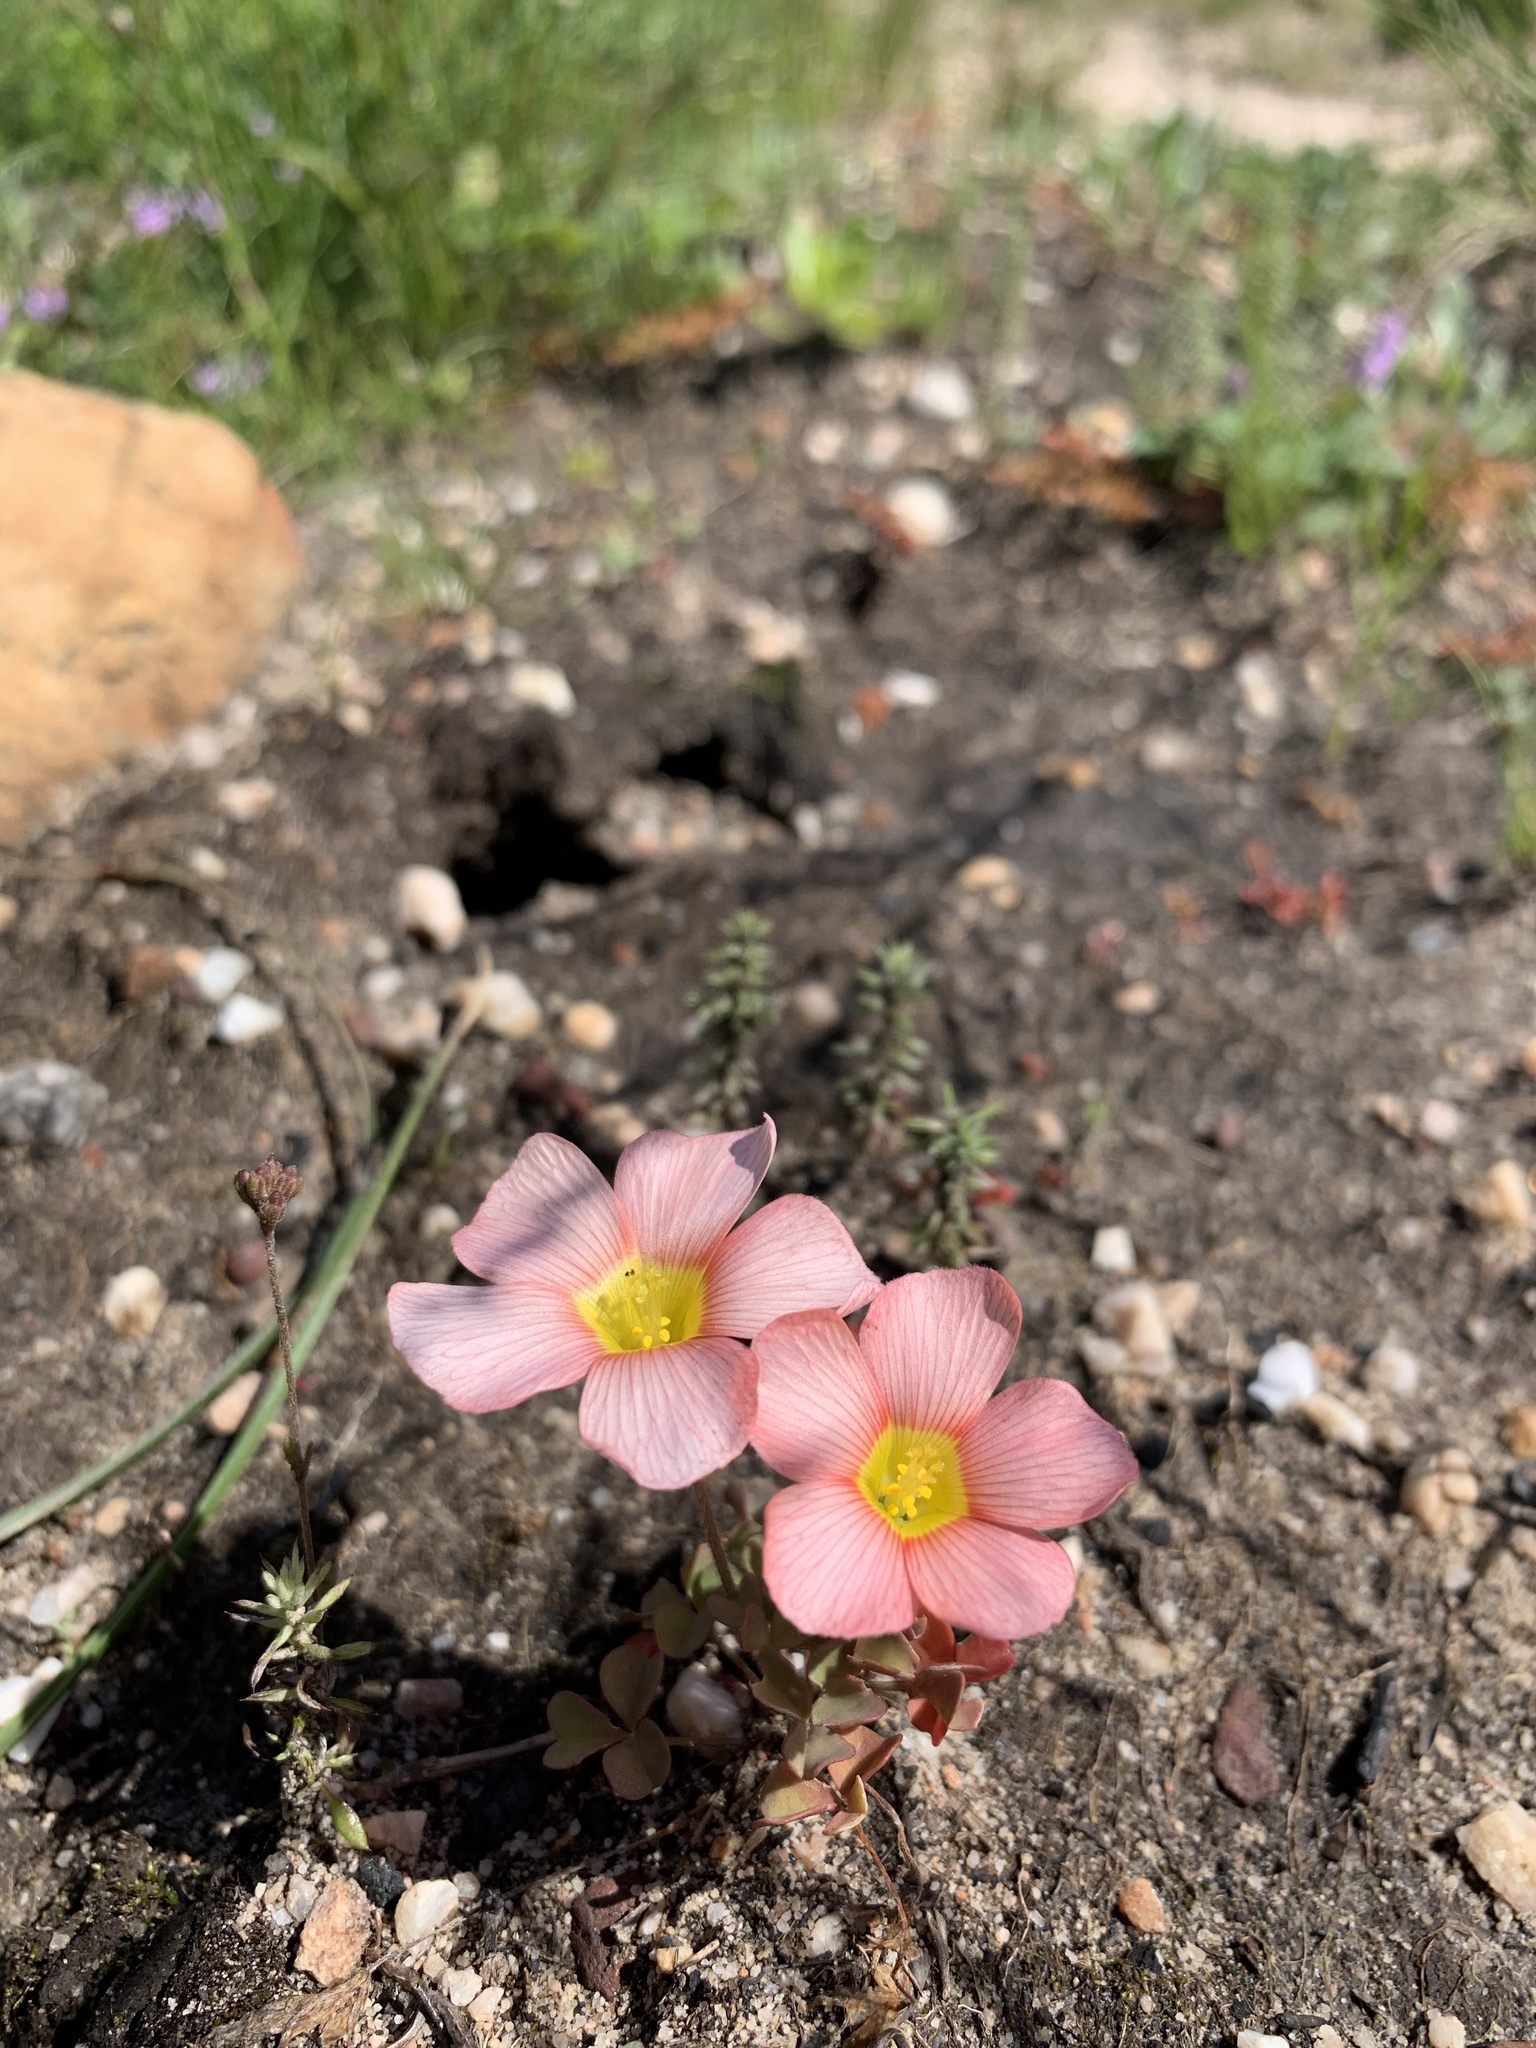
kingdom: Plantae
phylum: Tracheophyta
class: Magnoliopsida
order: Oxalidales
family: Oxalidaceae
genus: Oxalis
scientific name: Oxalis obtusa
